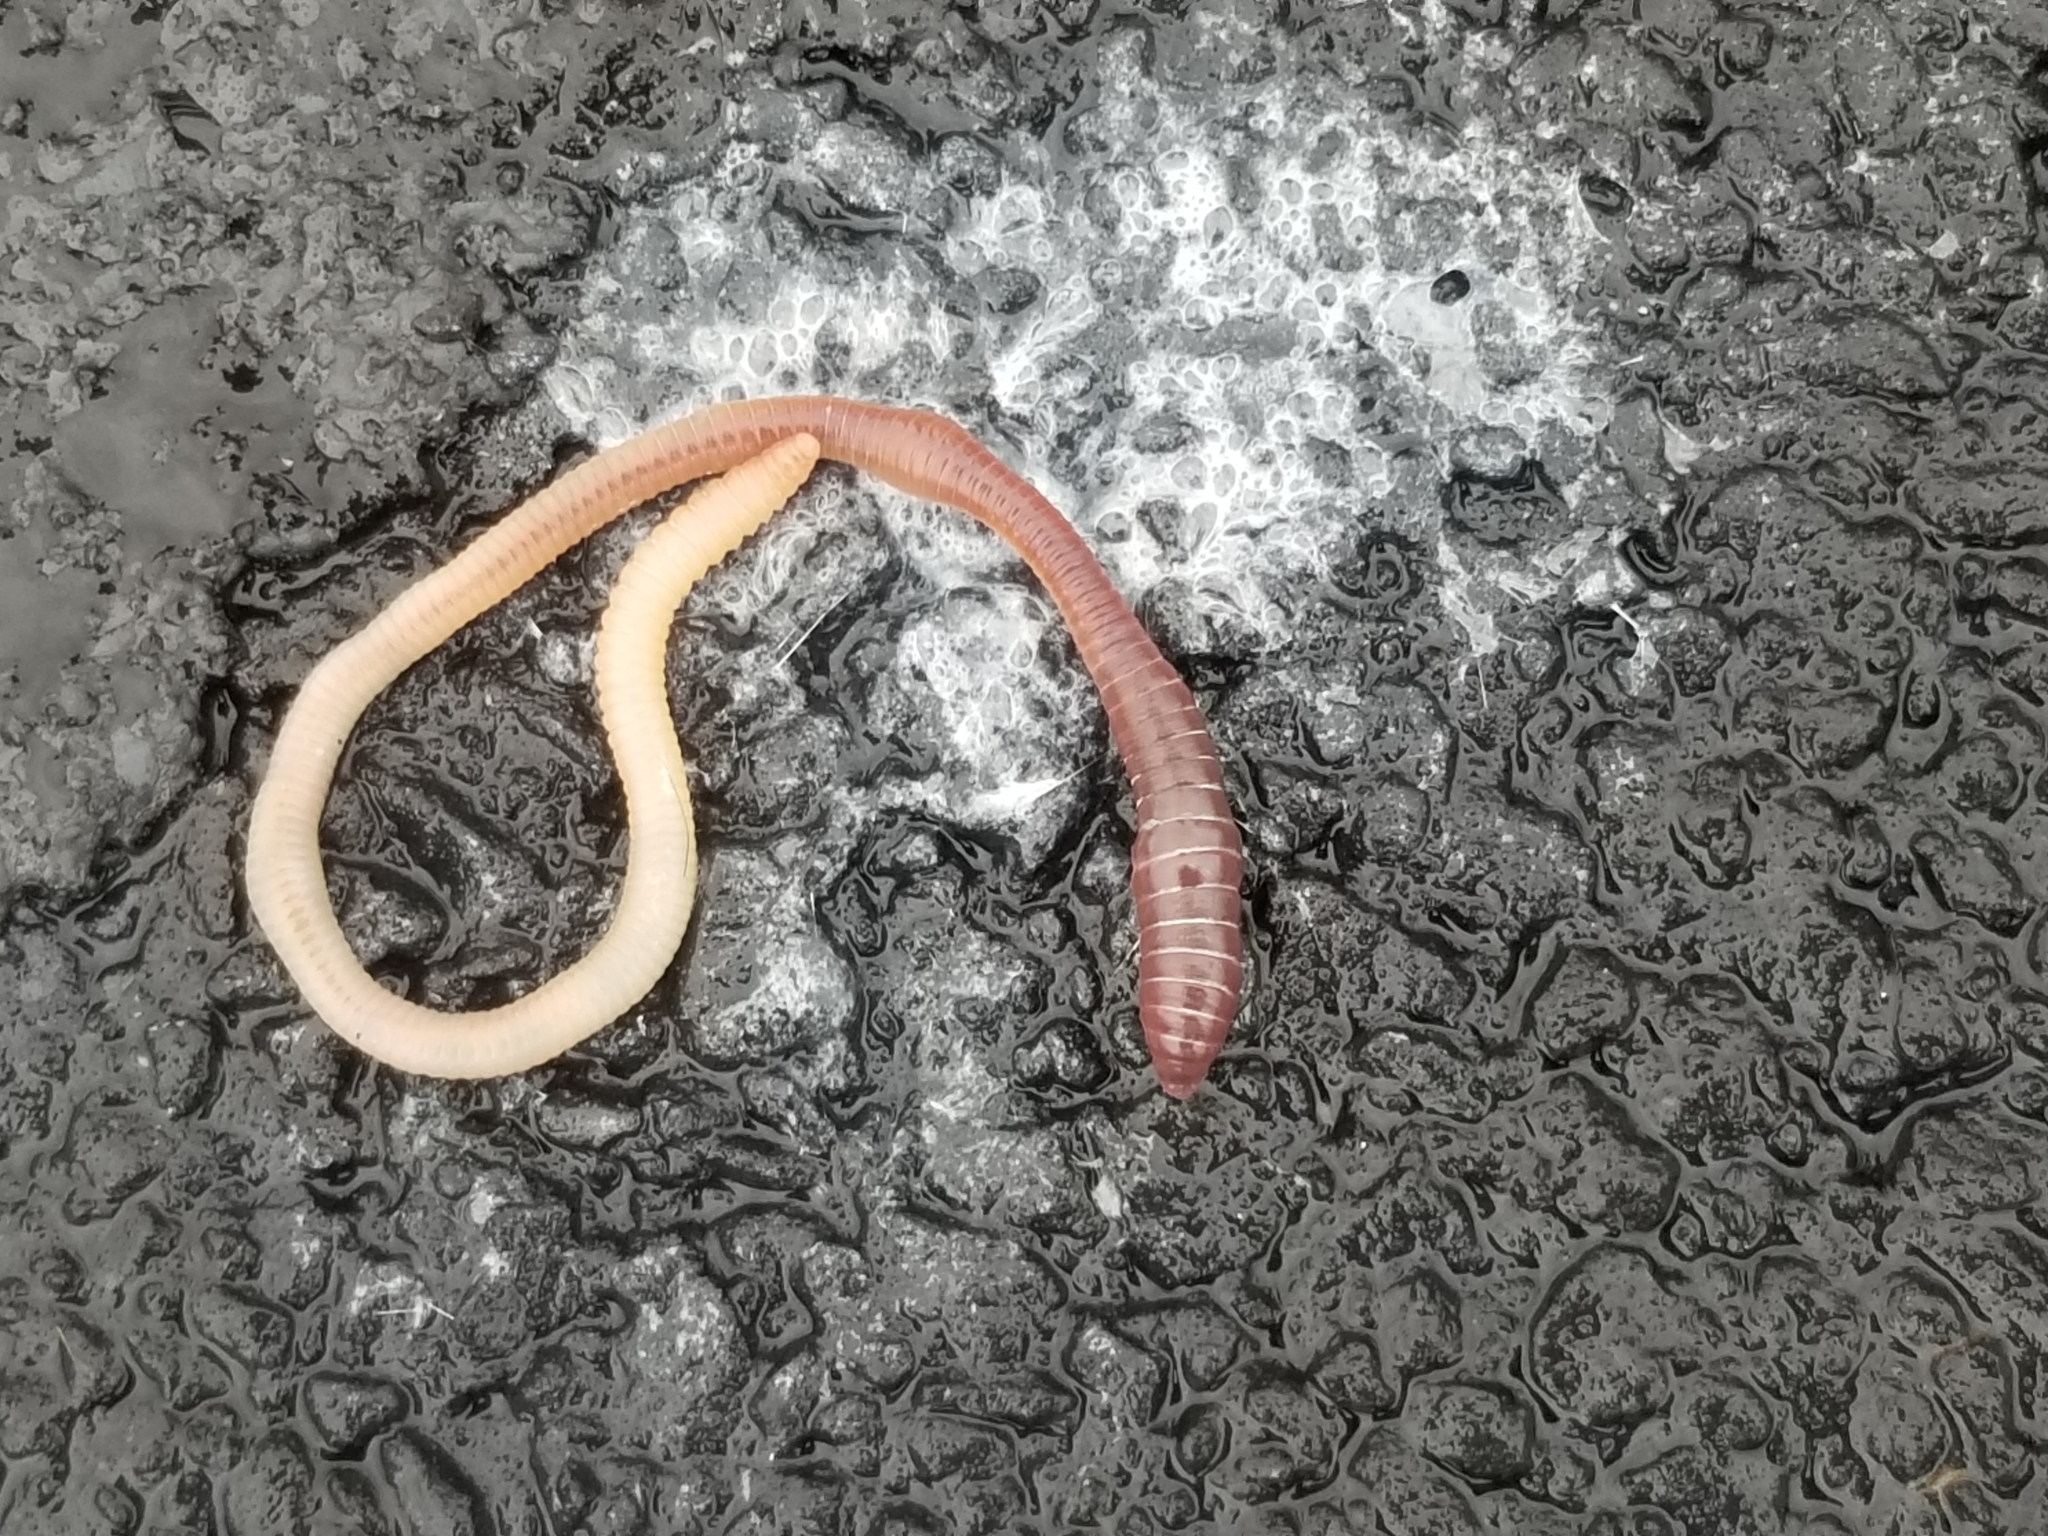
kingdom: Animalia
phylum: Annelida
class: Clitellata
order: Crassiclitellata
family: Lumbricidae
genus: Lumbricus
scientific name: Lumbricus terrestris
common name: Common earthworm
